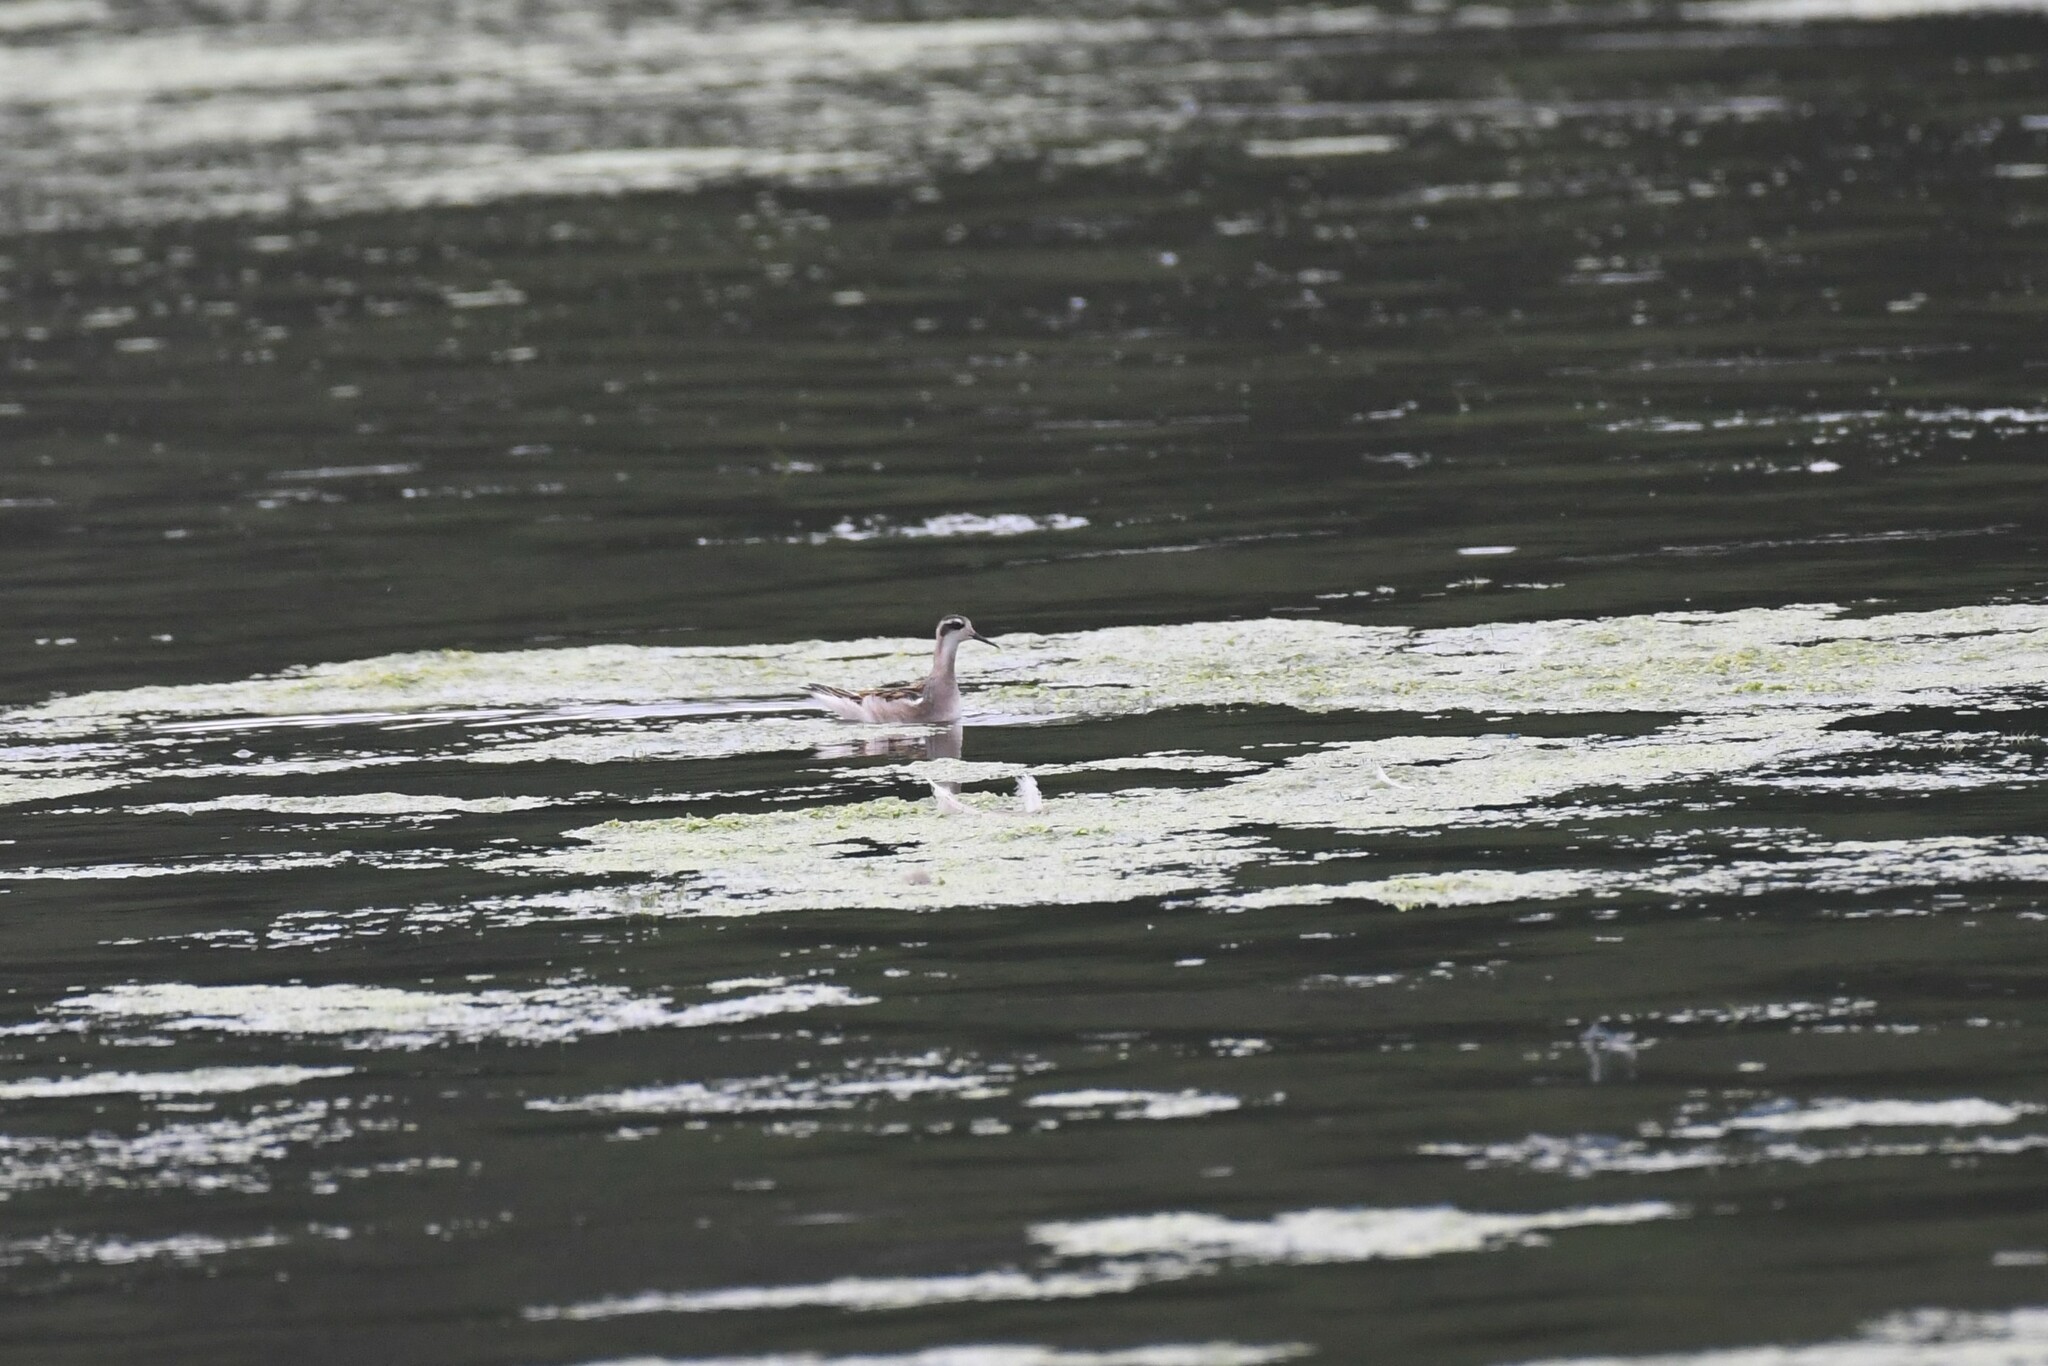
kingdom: Animalia
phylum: Chordata
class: Aves
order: Charadriiformes
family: Scolopacidae
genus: Phalaropus
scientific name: Phalaropus lobatus
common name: Red-necked phalarope
